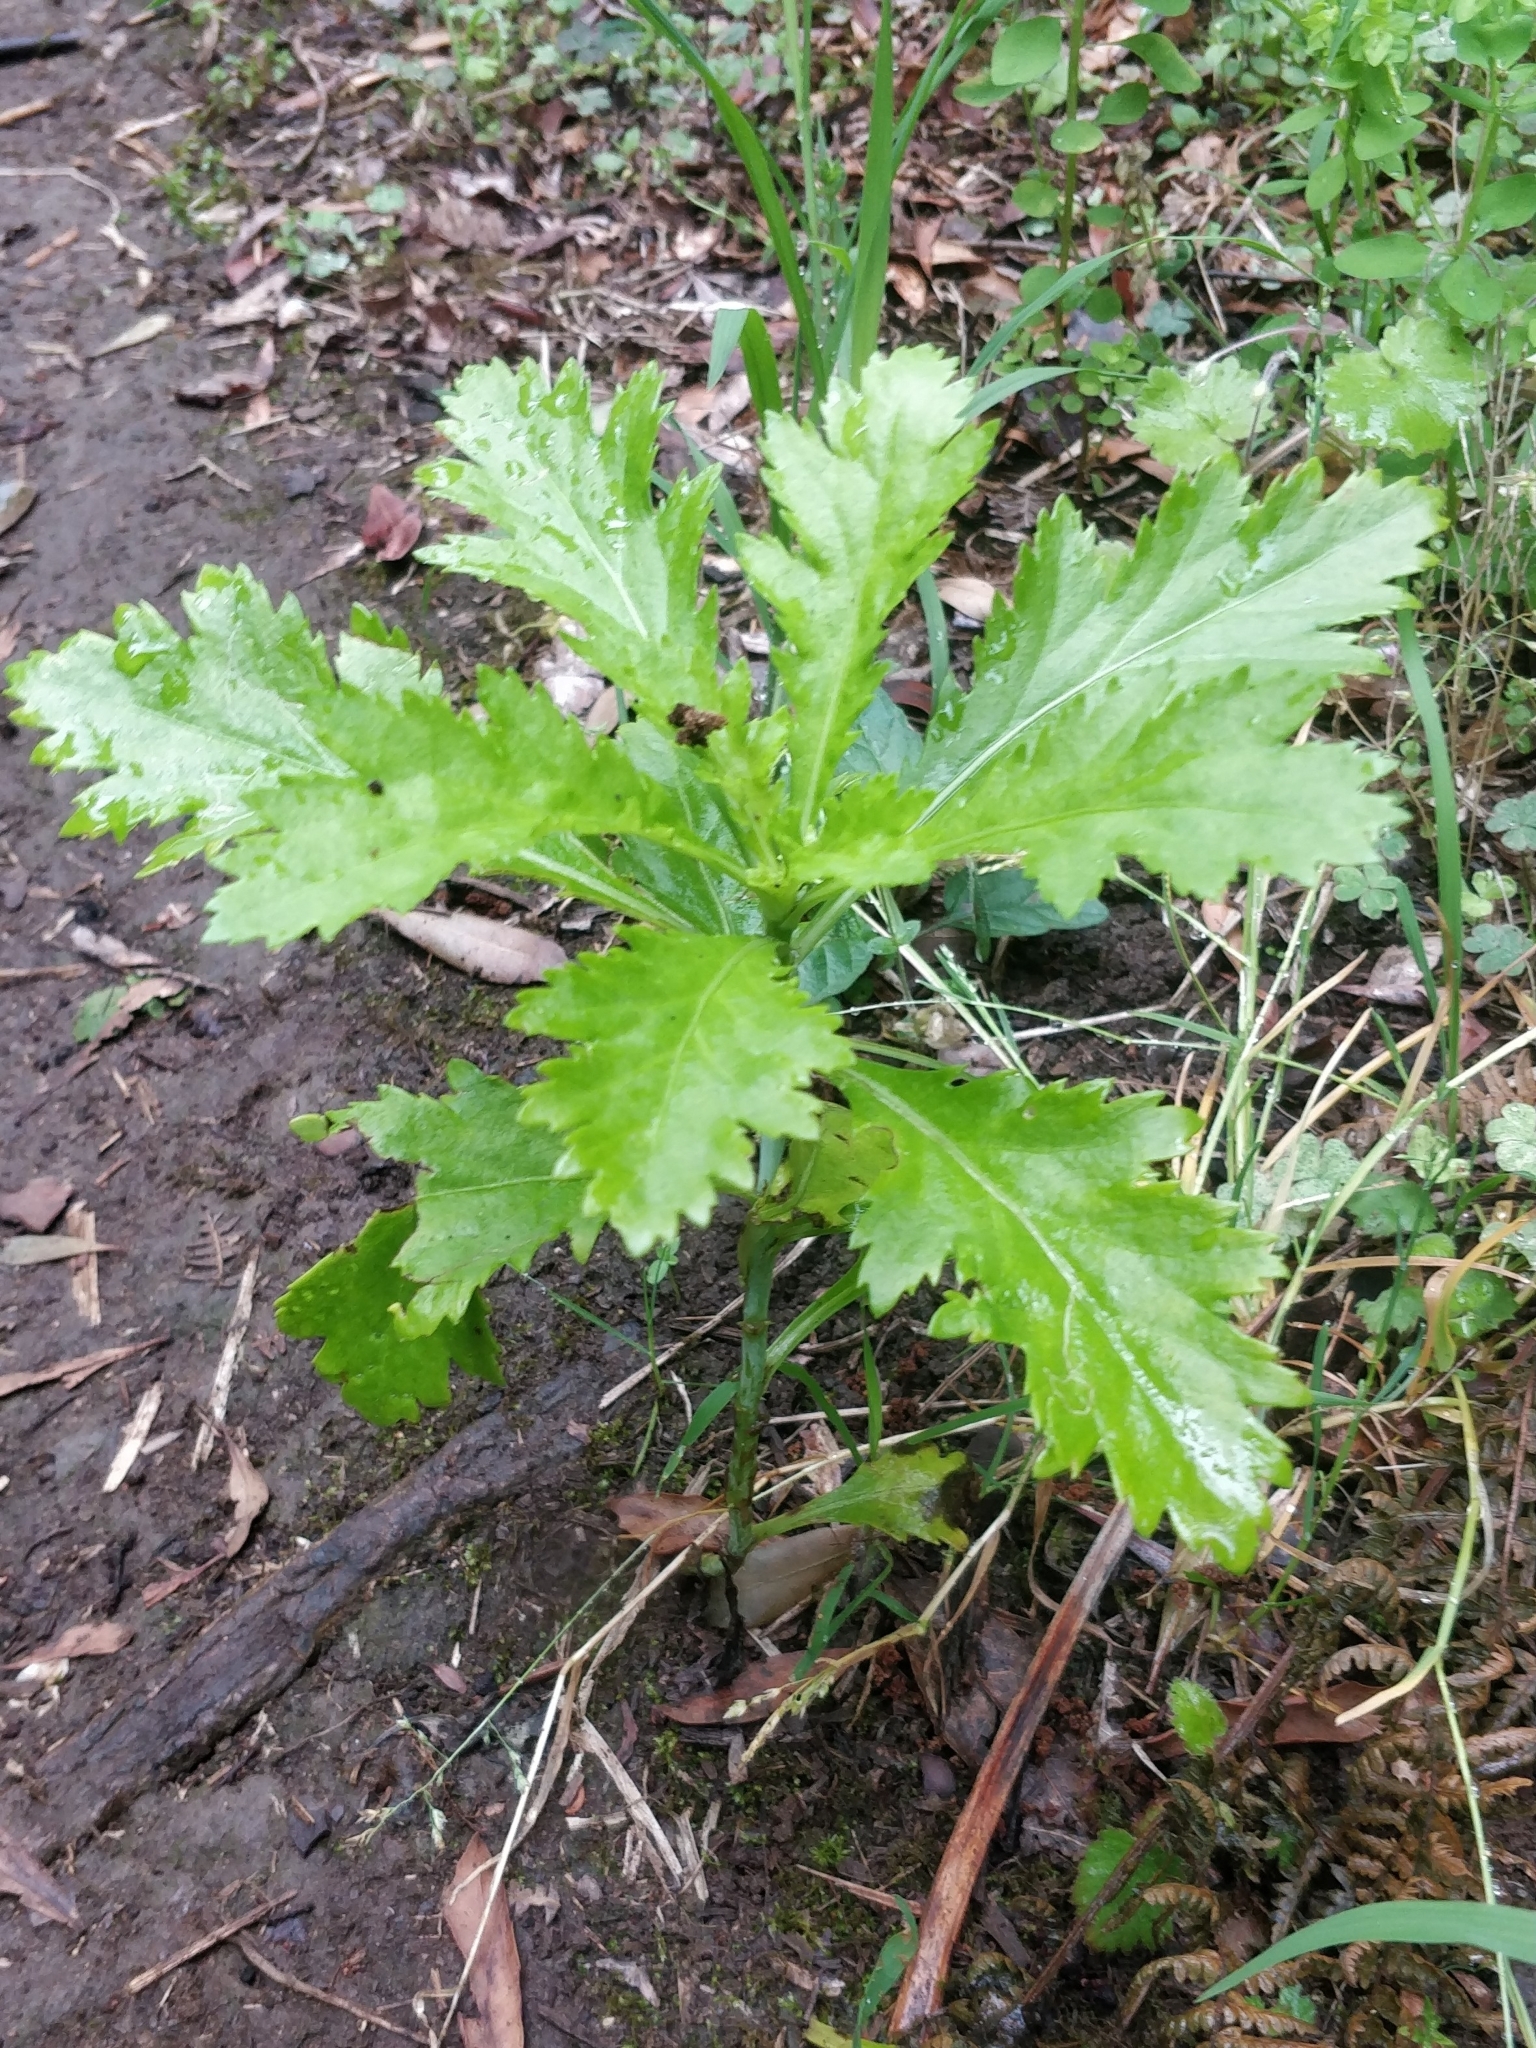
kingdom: Plantae
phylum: Tracheophyta
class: Magnoliopsida
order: Asterales
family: Asteraceae
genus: Argyranthemum
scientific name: Argyranthemum pinnatifidum
